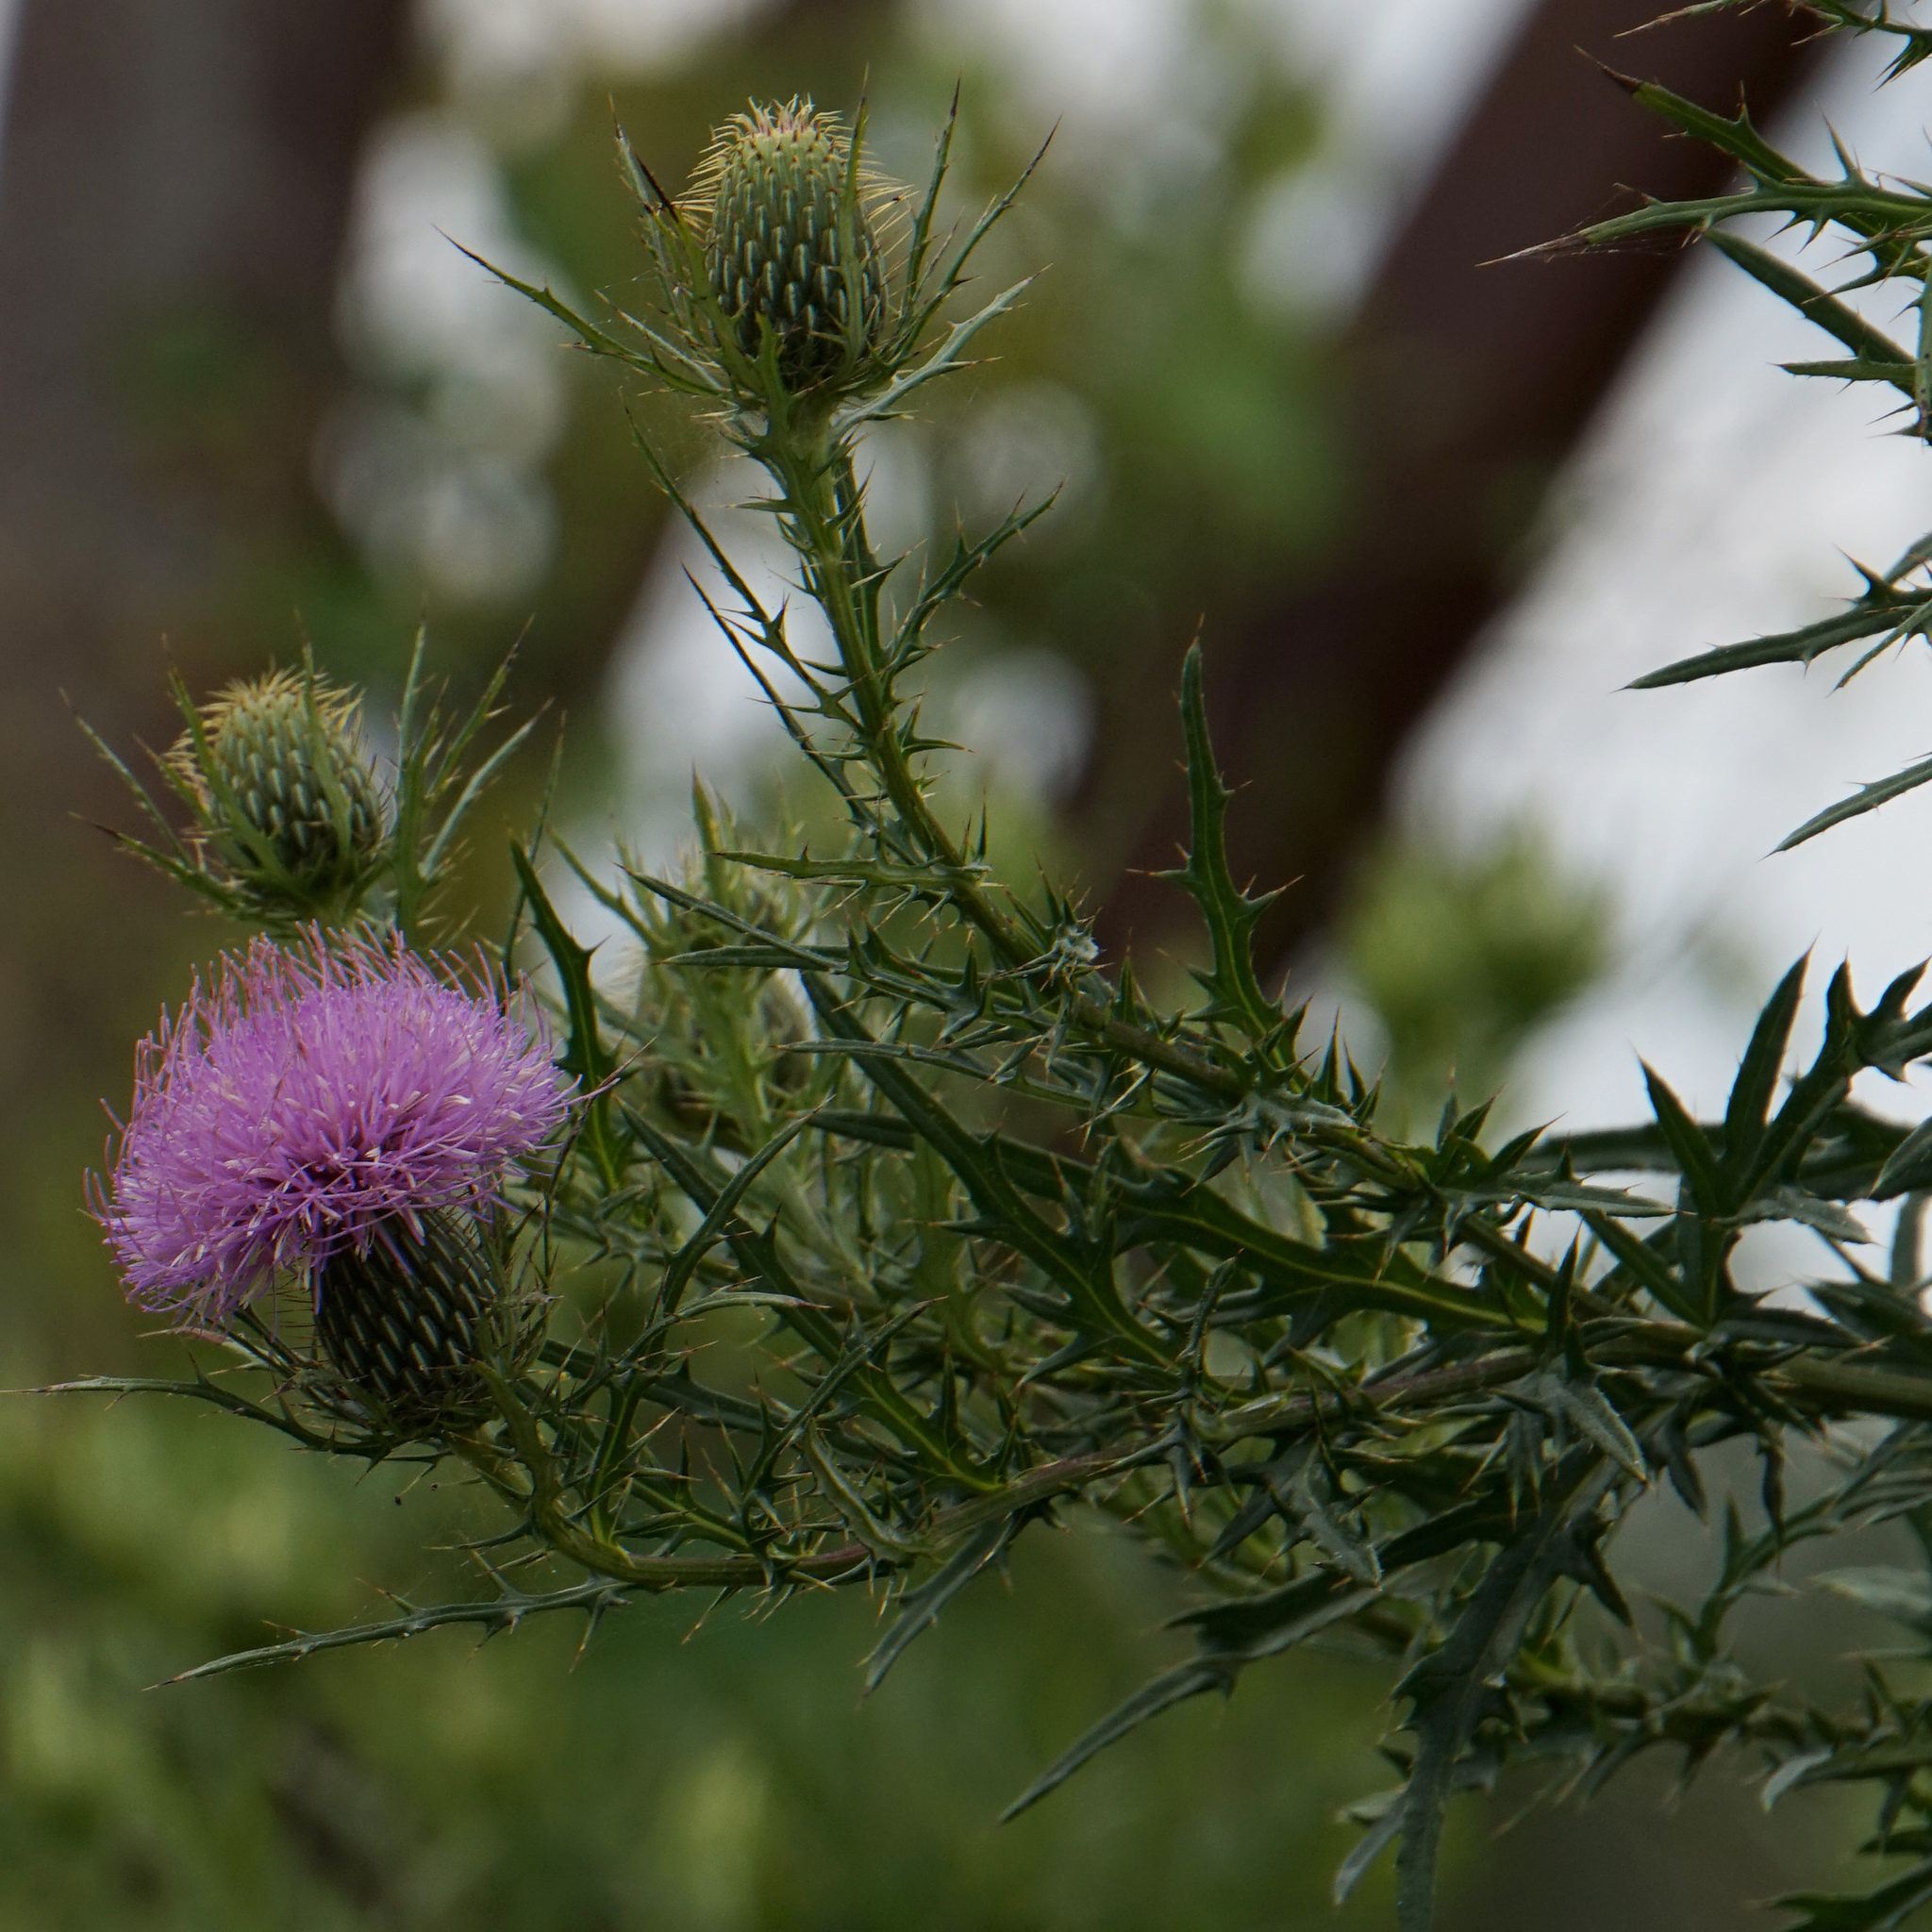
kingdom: Plantae
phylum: Tracheophyta
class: Magnoliopsida
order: Asterales
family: Asteraceae
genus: Cirsium
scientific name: Cirsium discolor
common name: Field thistle
